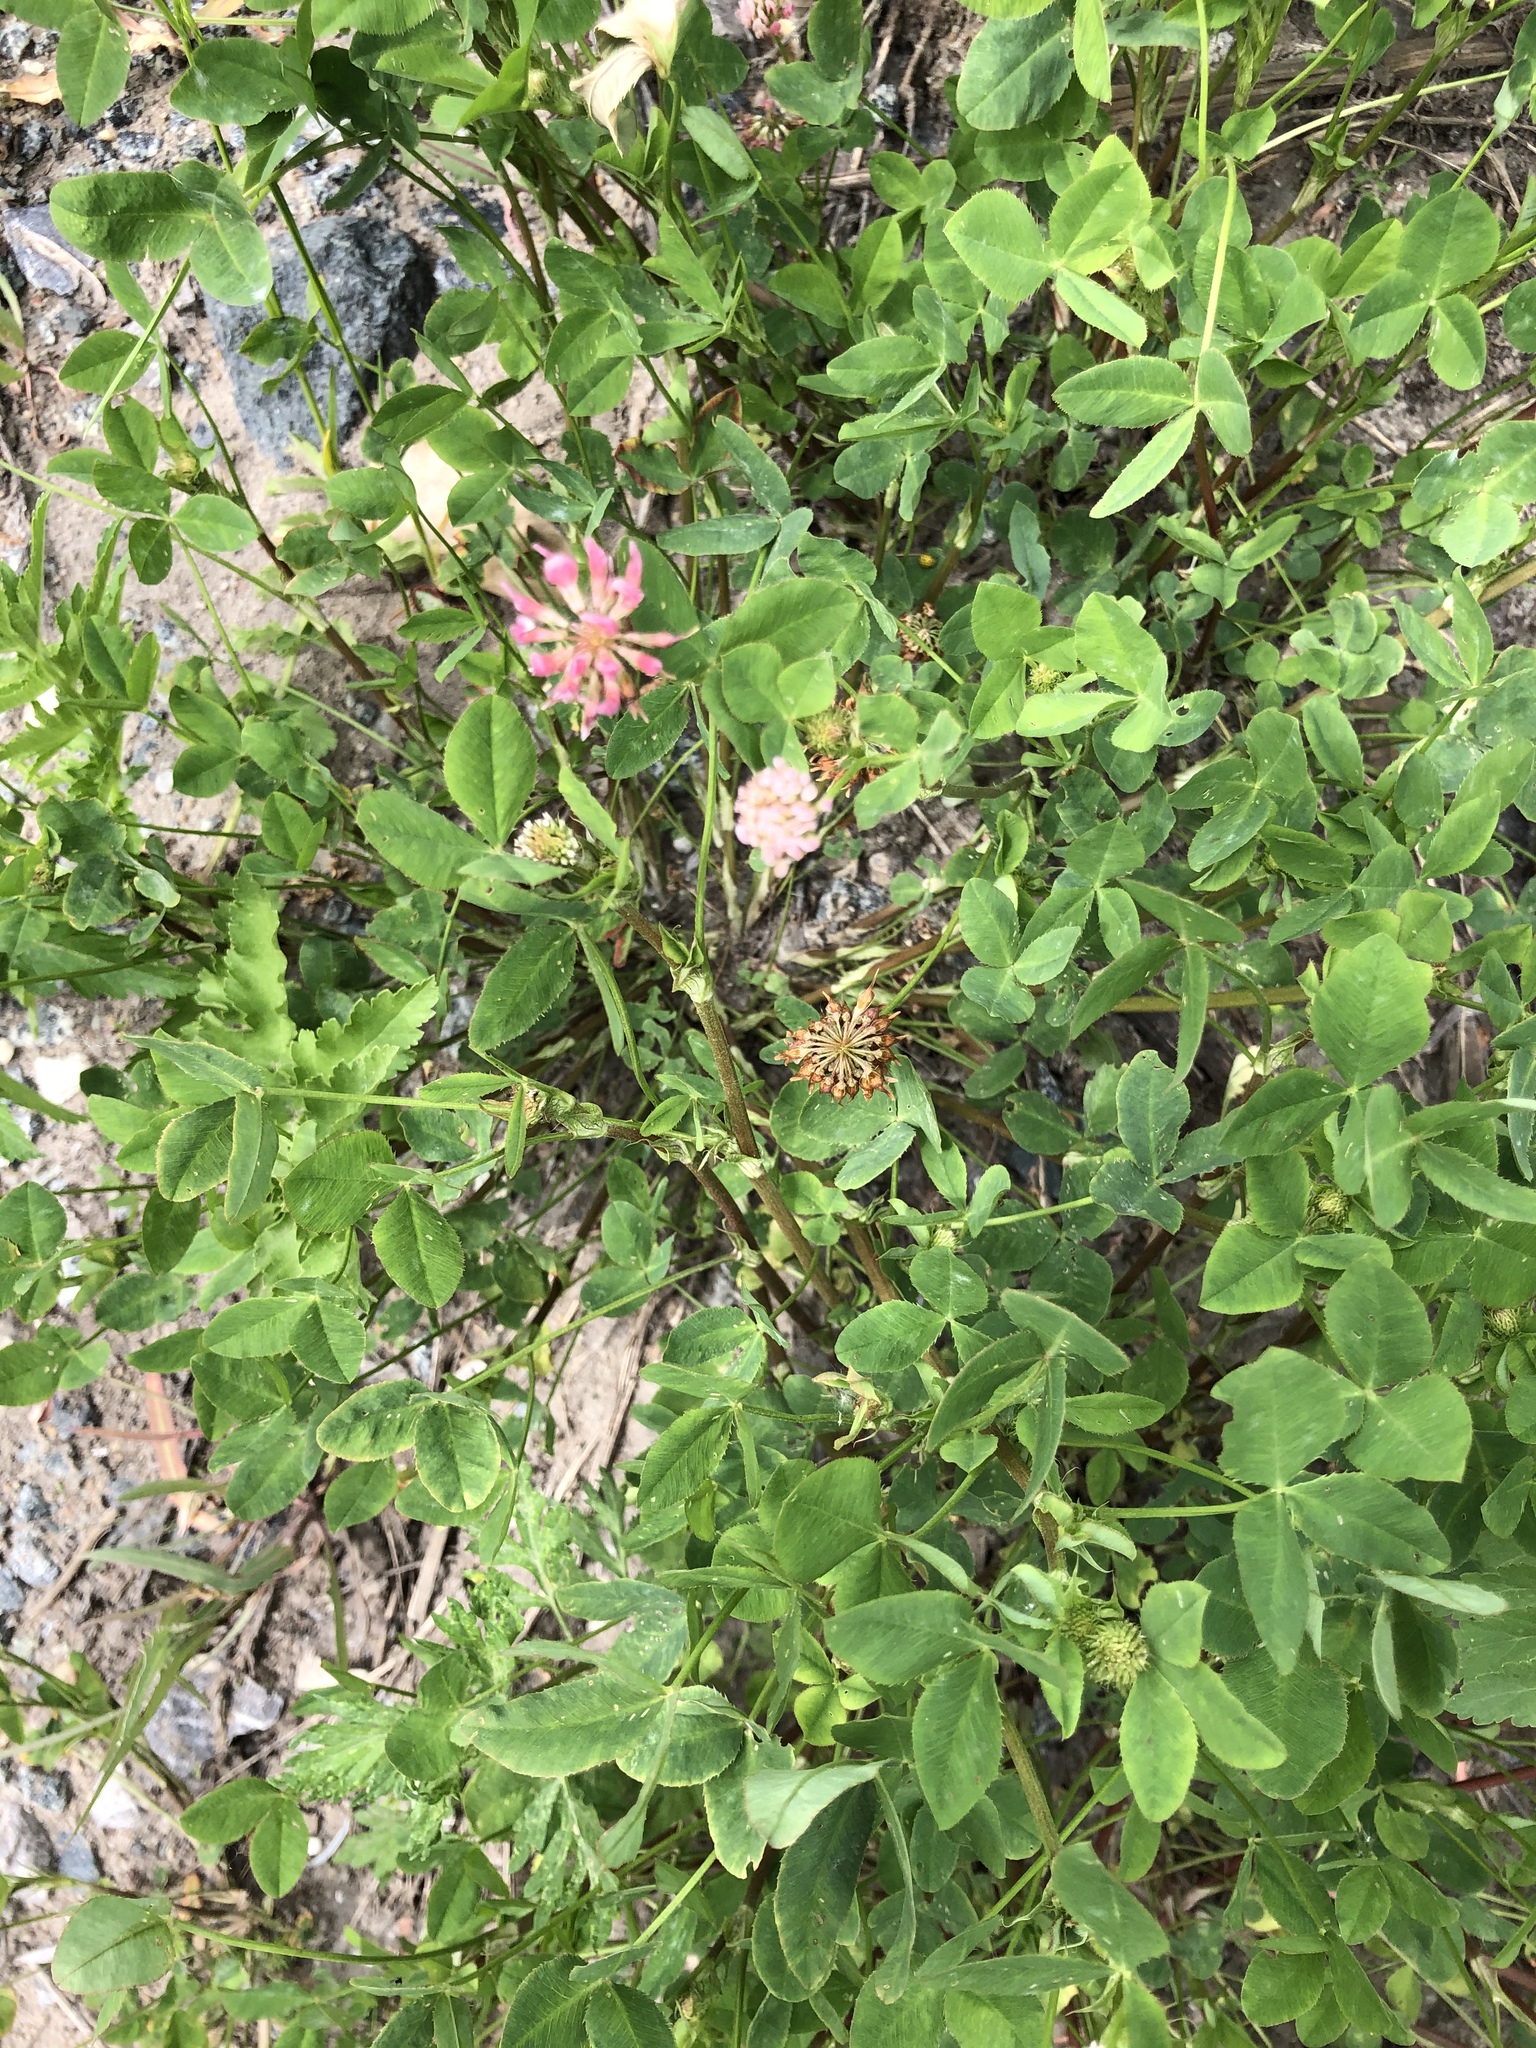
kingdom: Plantae
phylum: Tracheophyta
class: Magnoliopsida
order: Fabales
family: Fabaceae
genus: Trifolium
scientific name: Trifolium hybridum
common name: Alsike clover
